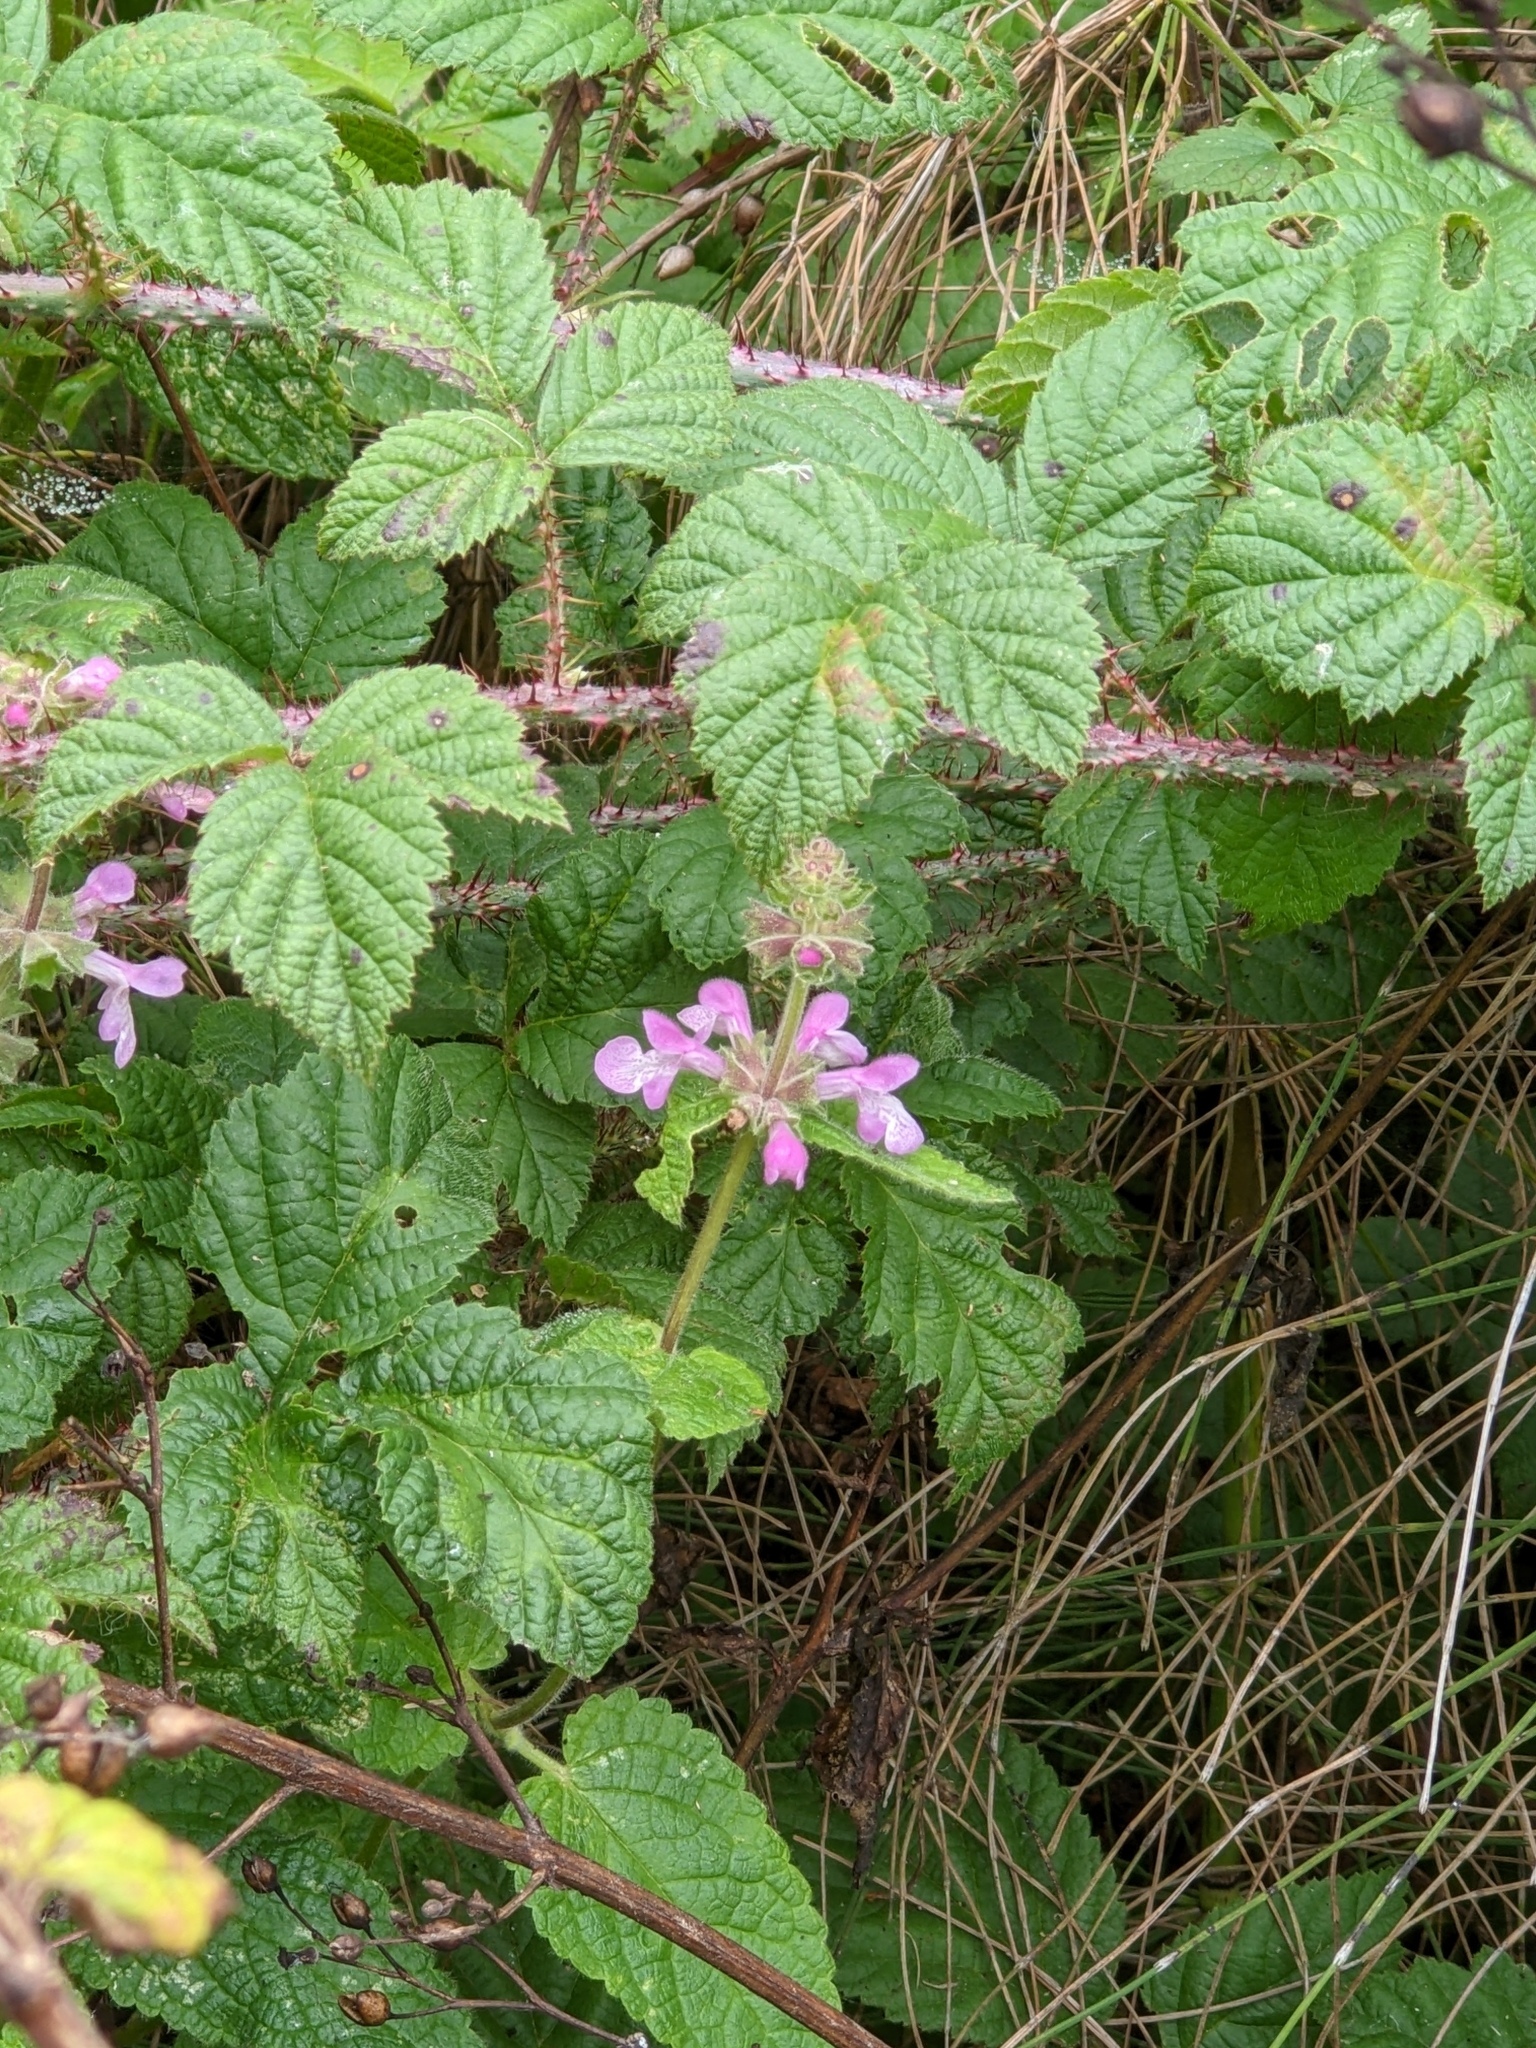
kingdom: Plantae
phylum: Tracheophyta
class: Magnoliopsida
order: Lamiales
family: Lamiaceae
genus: Stachys
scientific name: Stachys chamissonis
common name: Coastal hedge-nettle
